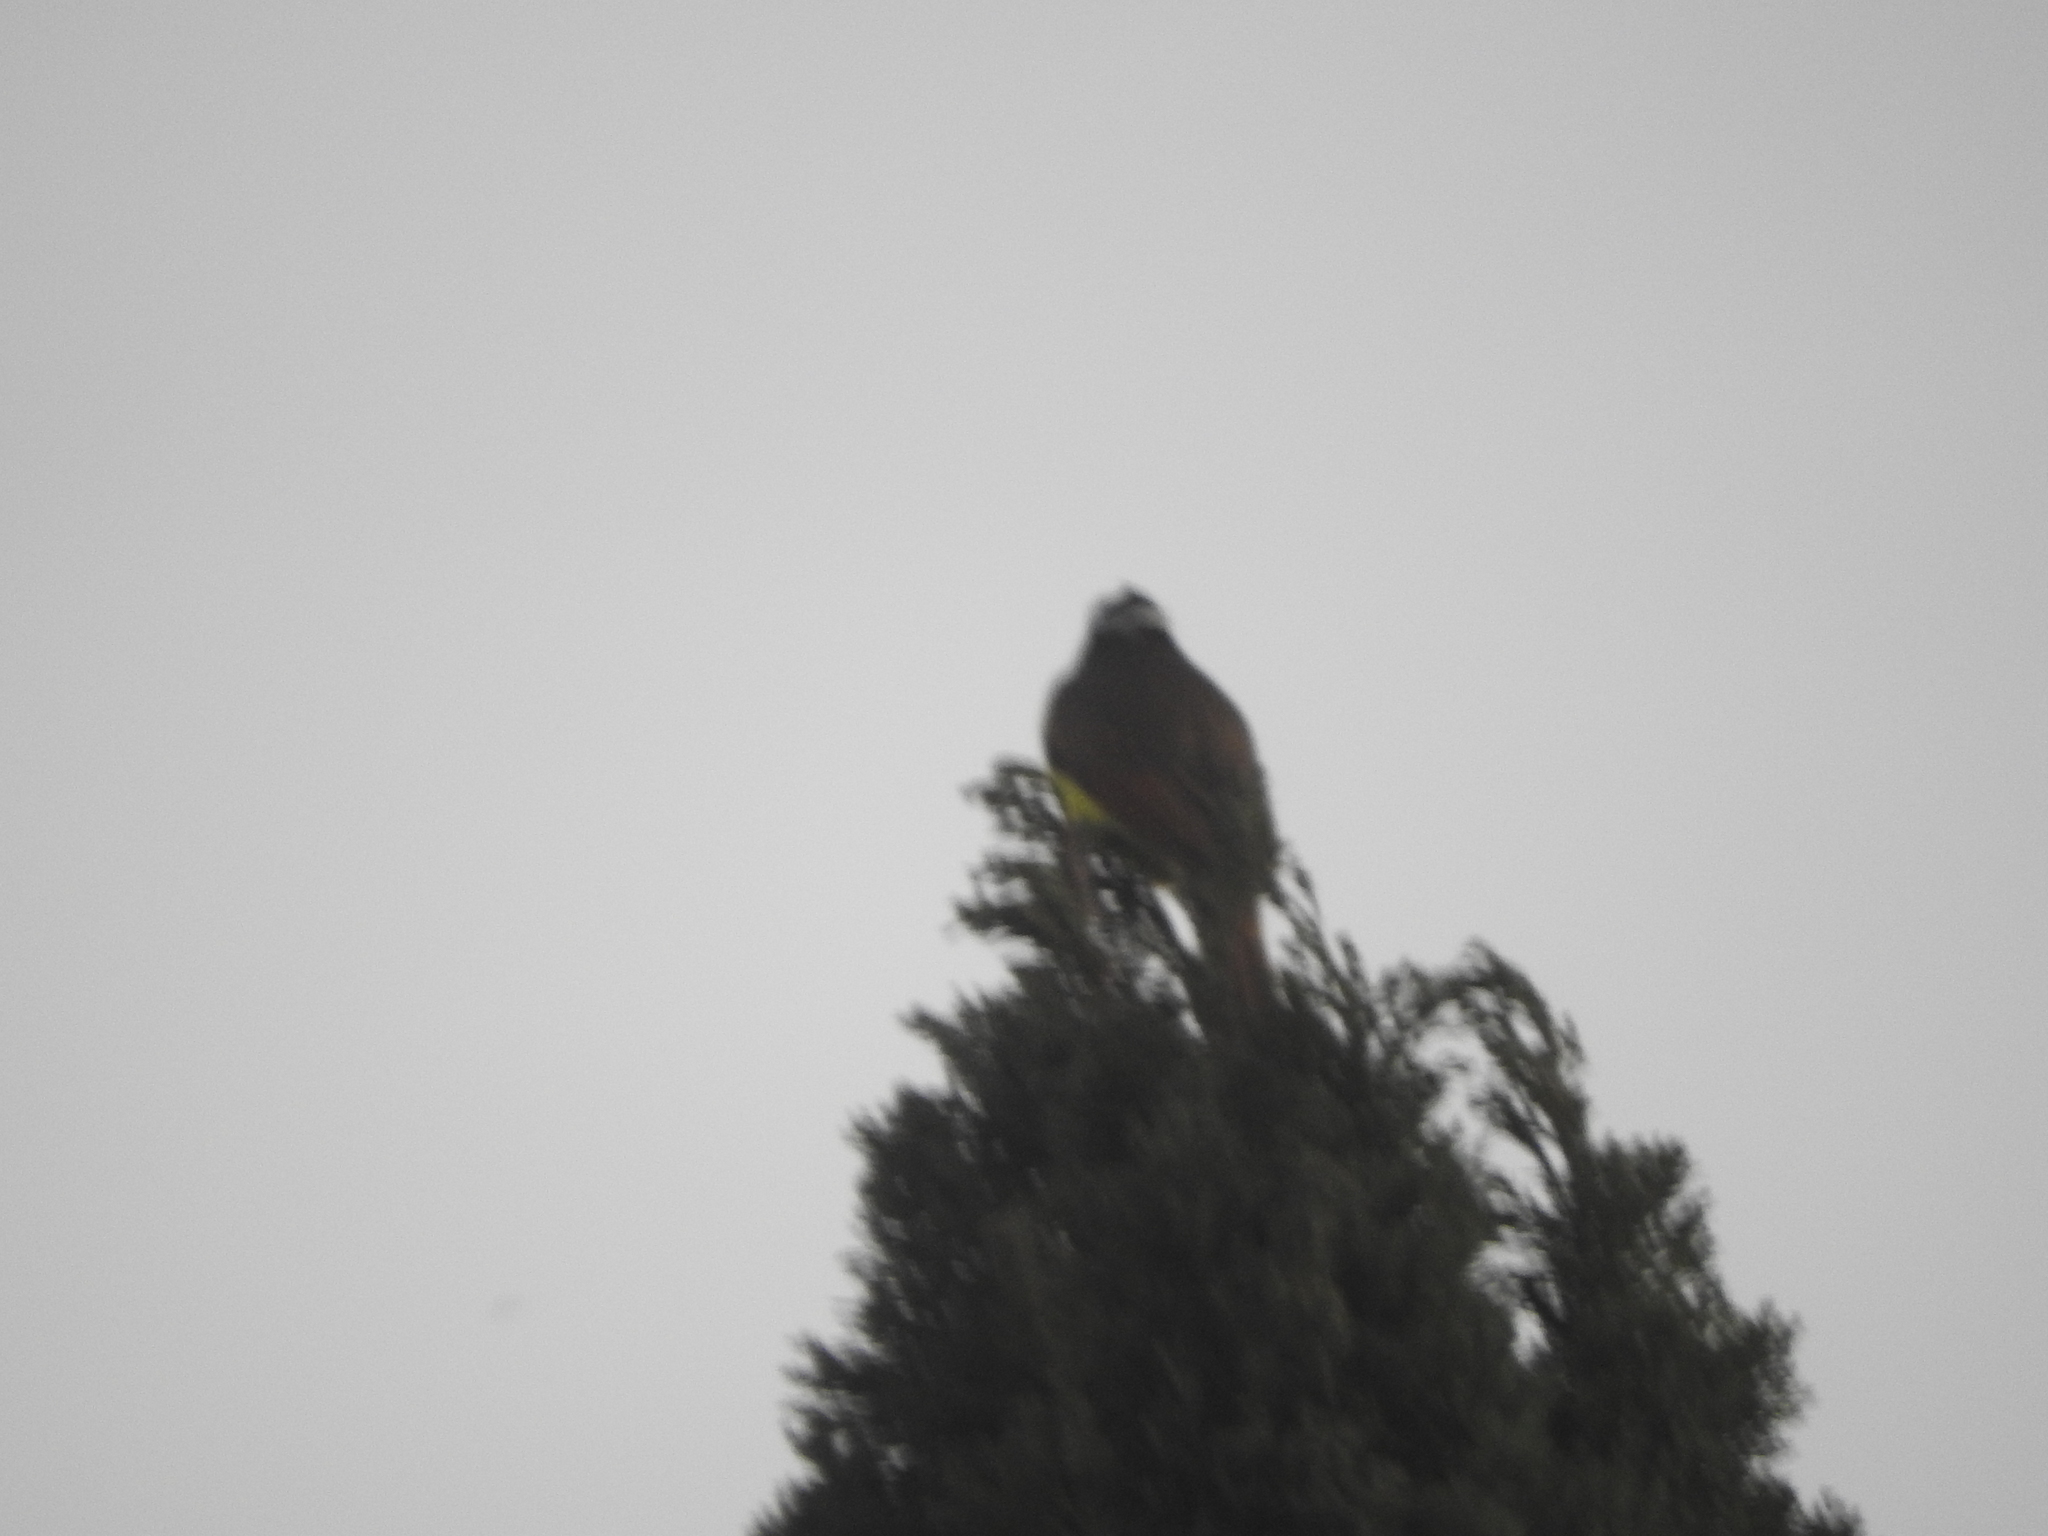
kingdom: Animalia
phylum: Chordata
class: Aves
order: Passeriformes
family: Tyrannidae
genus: Pitangus
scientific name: Pitangus sulphuratus
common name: Great kiskadee
